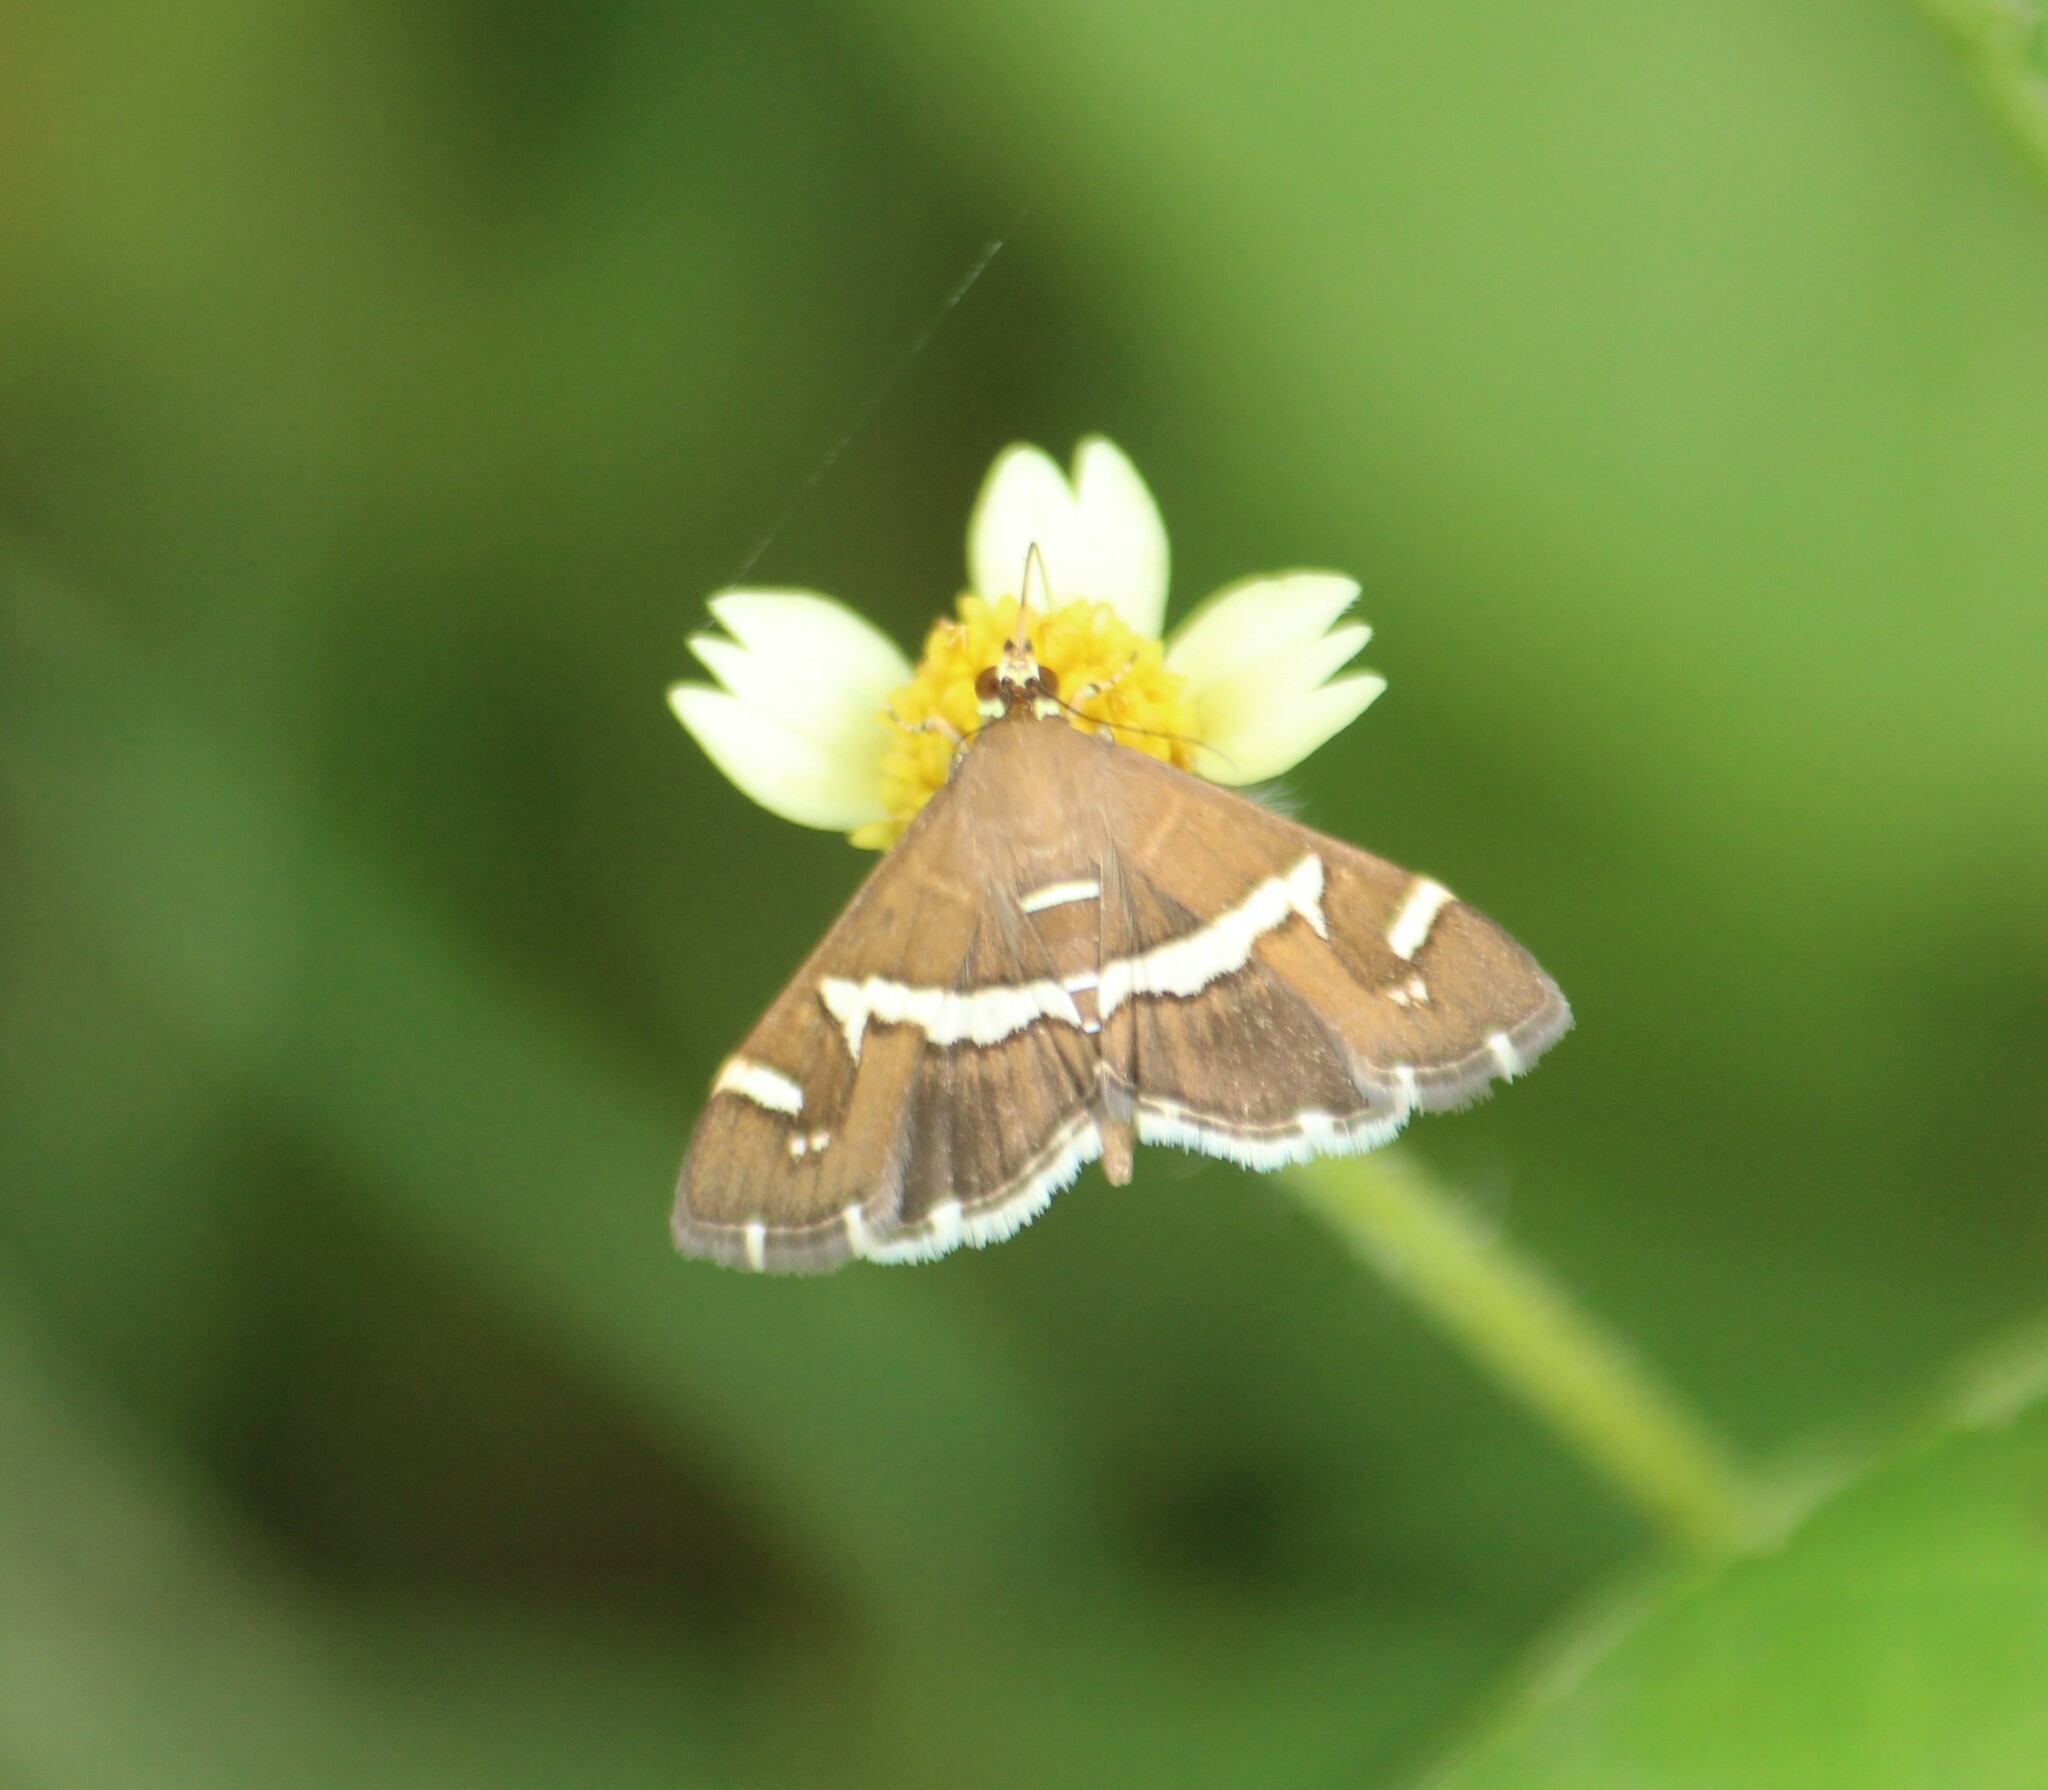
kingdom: Animalia
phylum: Arthropoda
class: Insecta
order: Lepidoptera
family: Crambidae
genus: Spoladea
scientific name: Spoladea recurvalis
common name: Beet webworm moth
